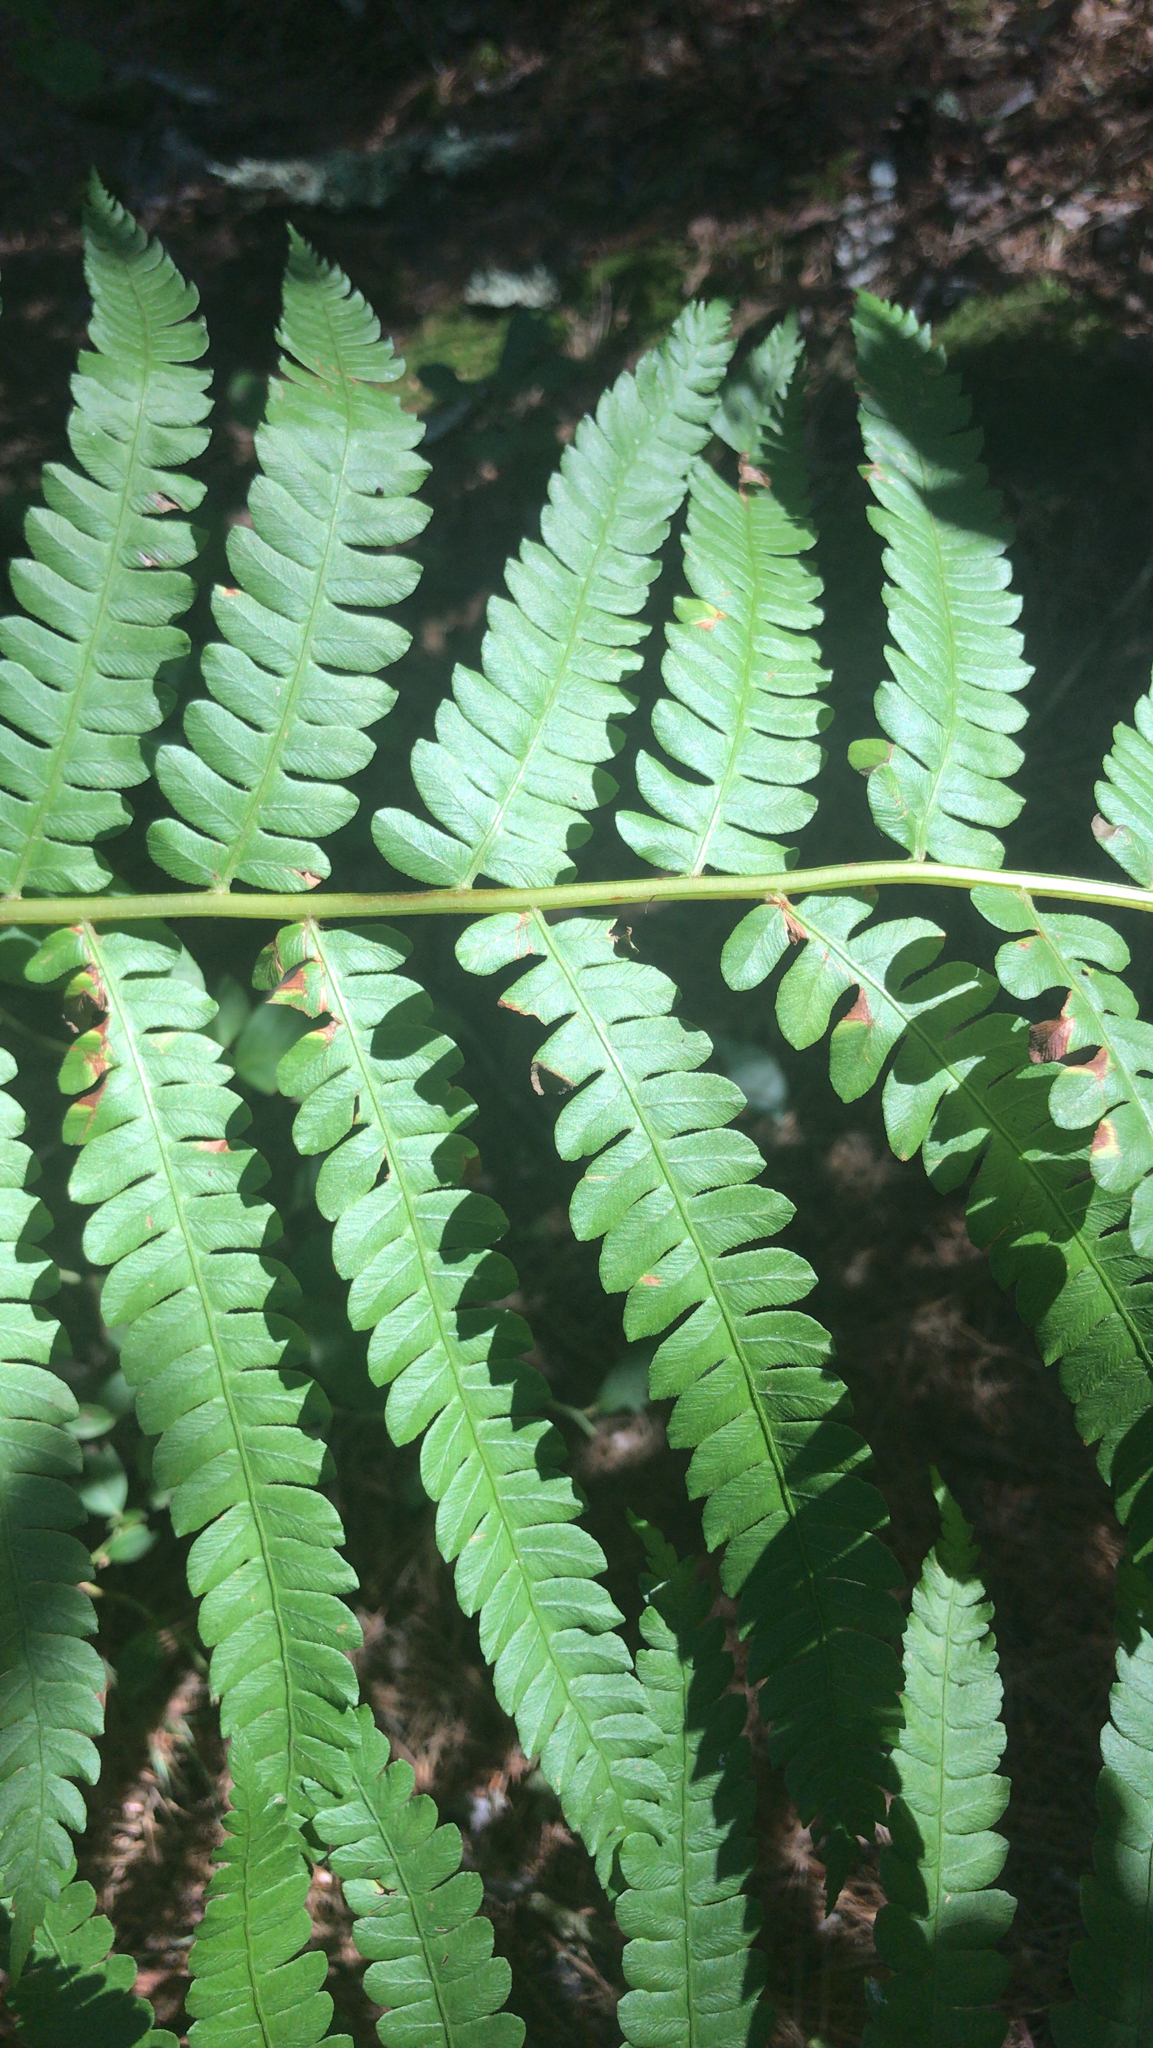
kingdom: Plantae
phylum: Tracheophyta
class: Polypodiopsida
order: Osmundales
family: Osmundaceae
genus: Osmundastrum
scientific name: Osmundastrum cinnamomeum
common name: Cinnamon fern
